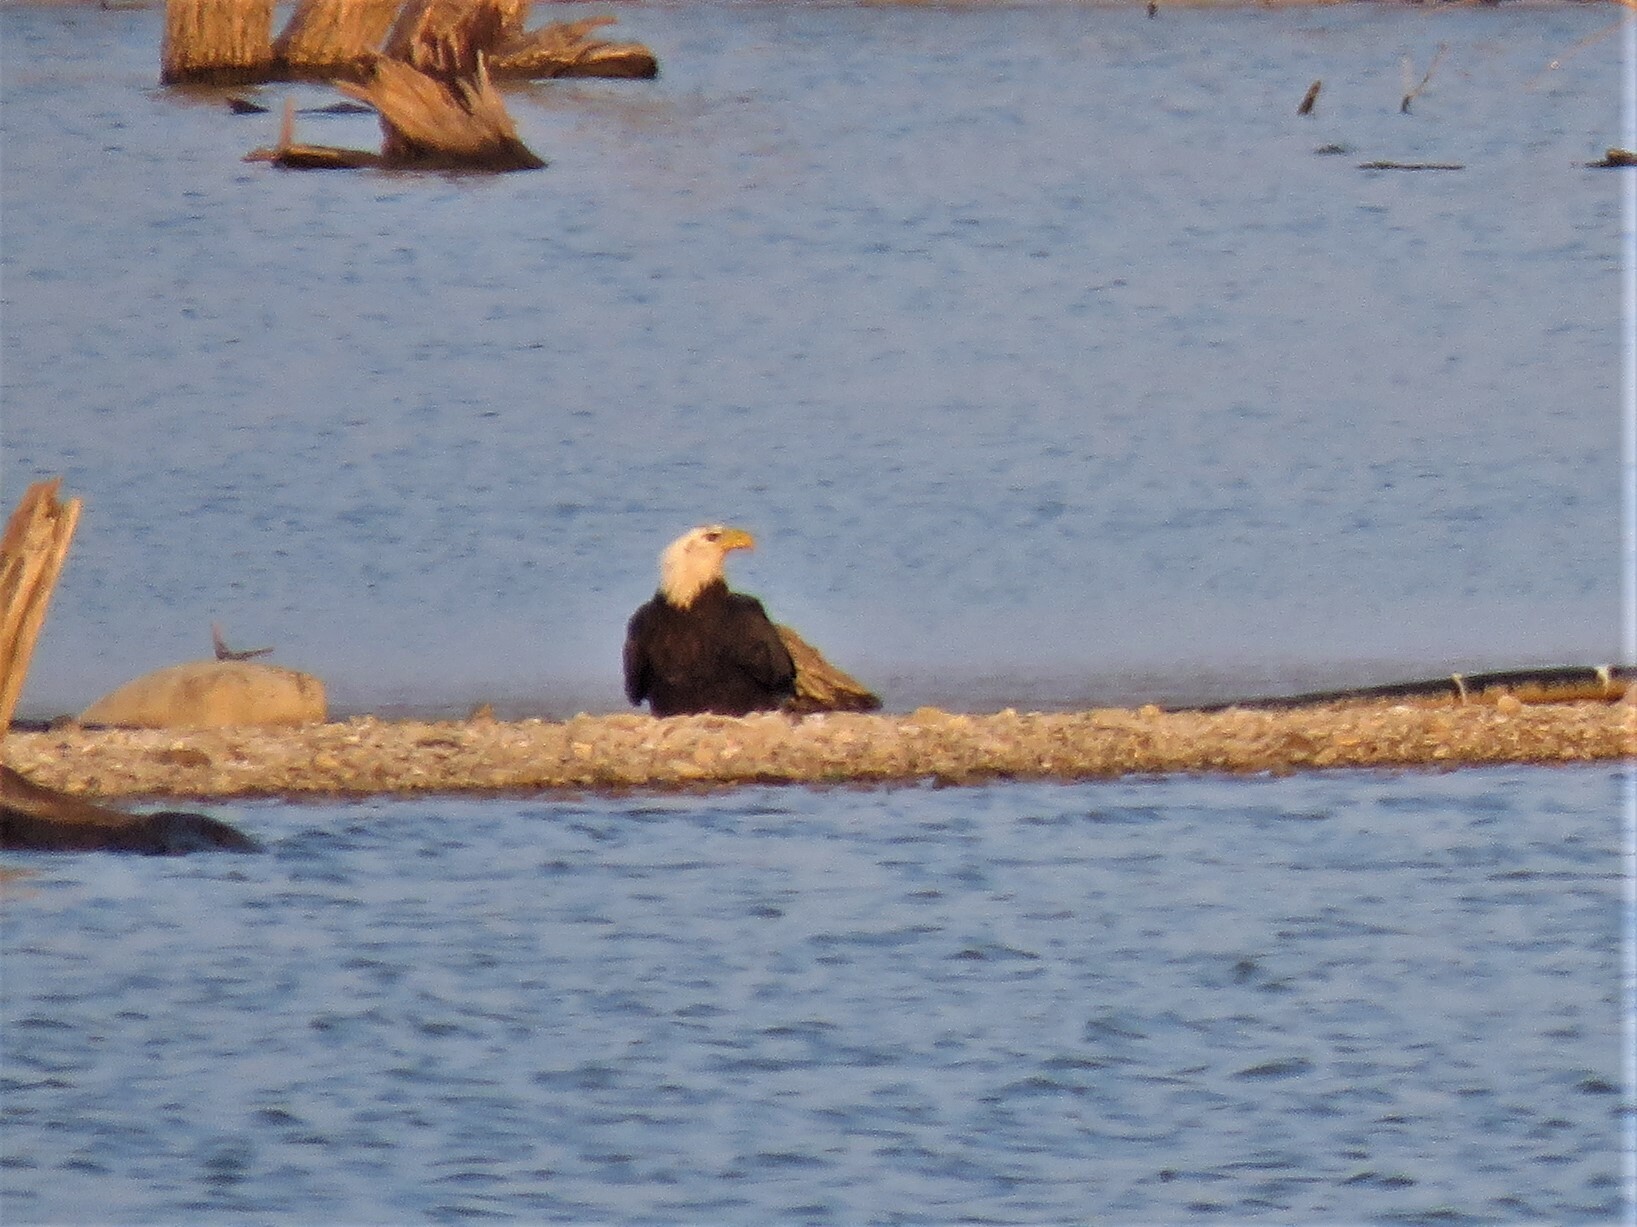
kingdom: Animalia
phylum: Chordata
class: Aves
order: Accipitriformes
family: Accipitridae
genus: Haliaeetus
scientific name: Haliaeetus leucocephalus
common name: Bald eagle
